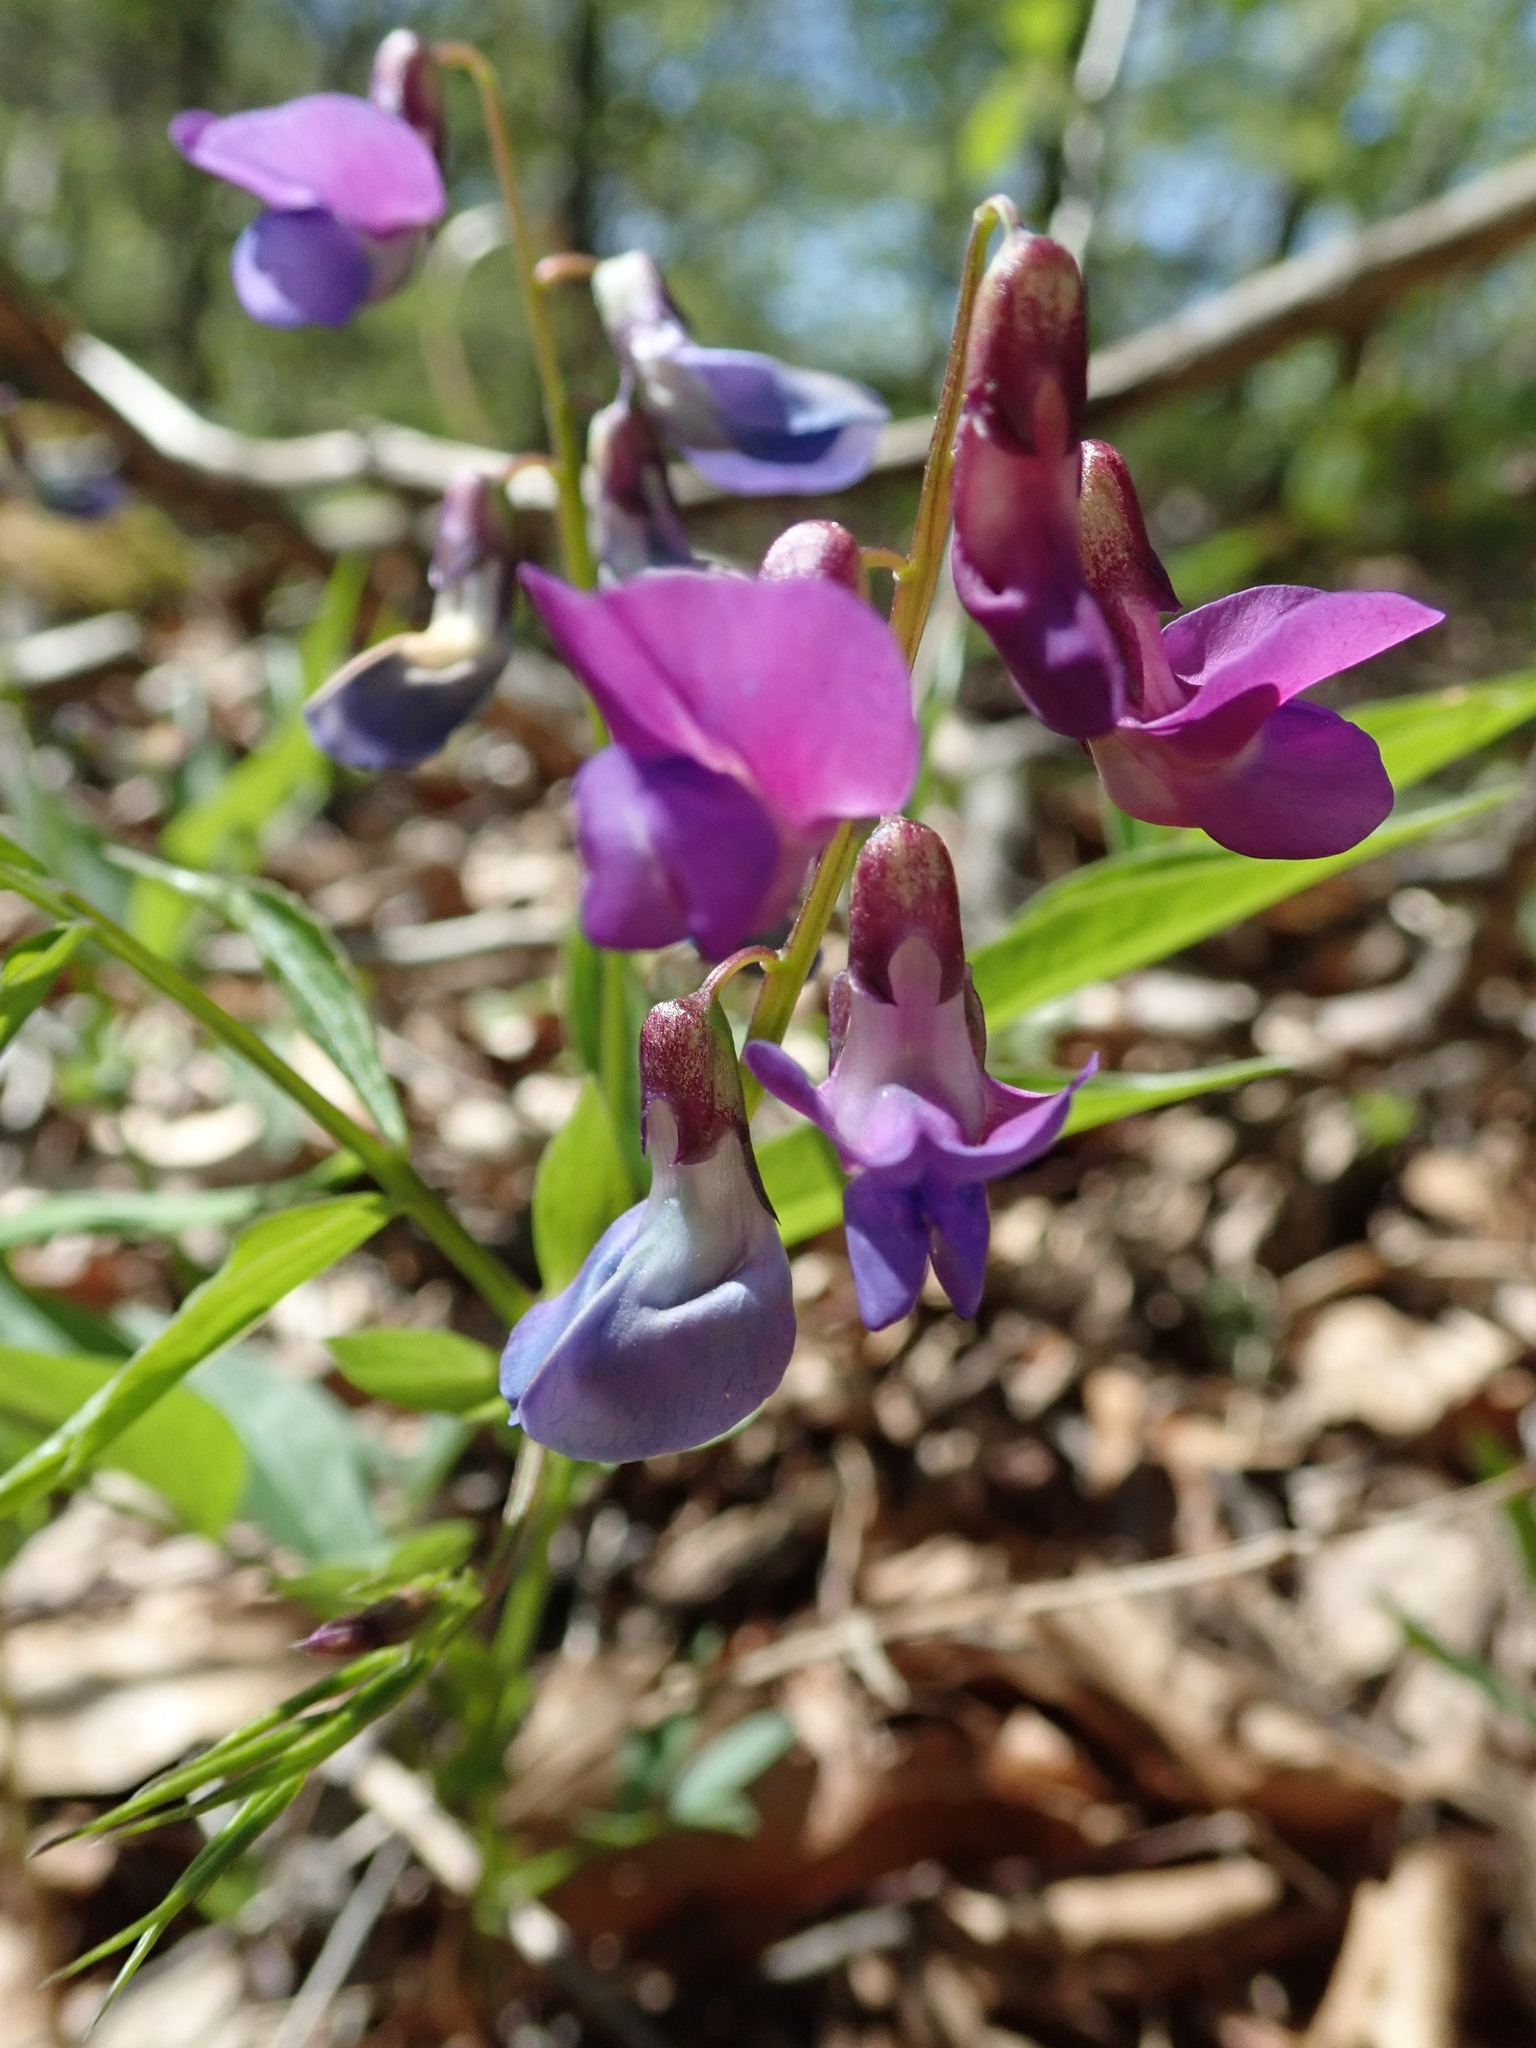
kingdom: Plantae
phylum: Tracheophyta
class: Magnoliopsida
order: Fabales
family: Fabaceae
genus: Lathyrus
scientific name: Lathyrus vernus
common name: Spring pea
